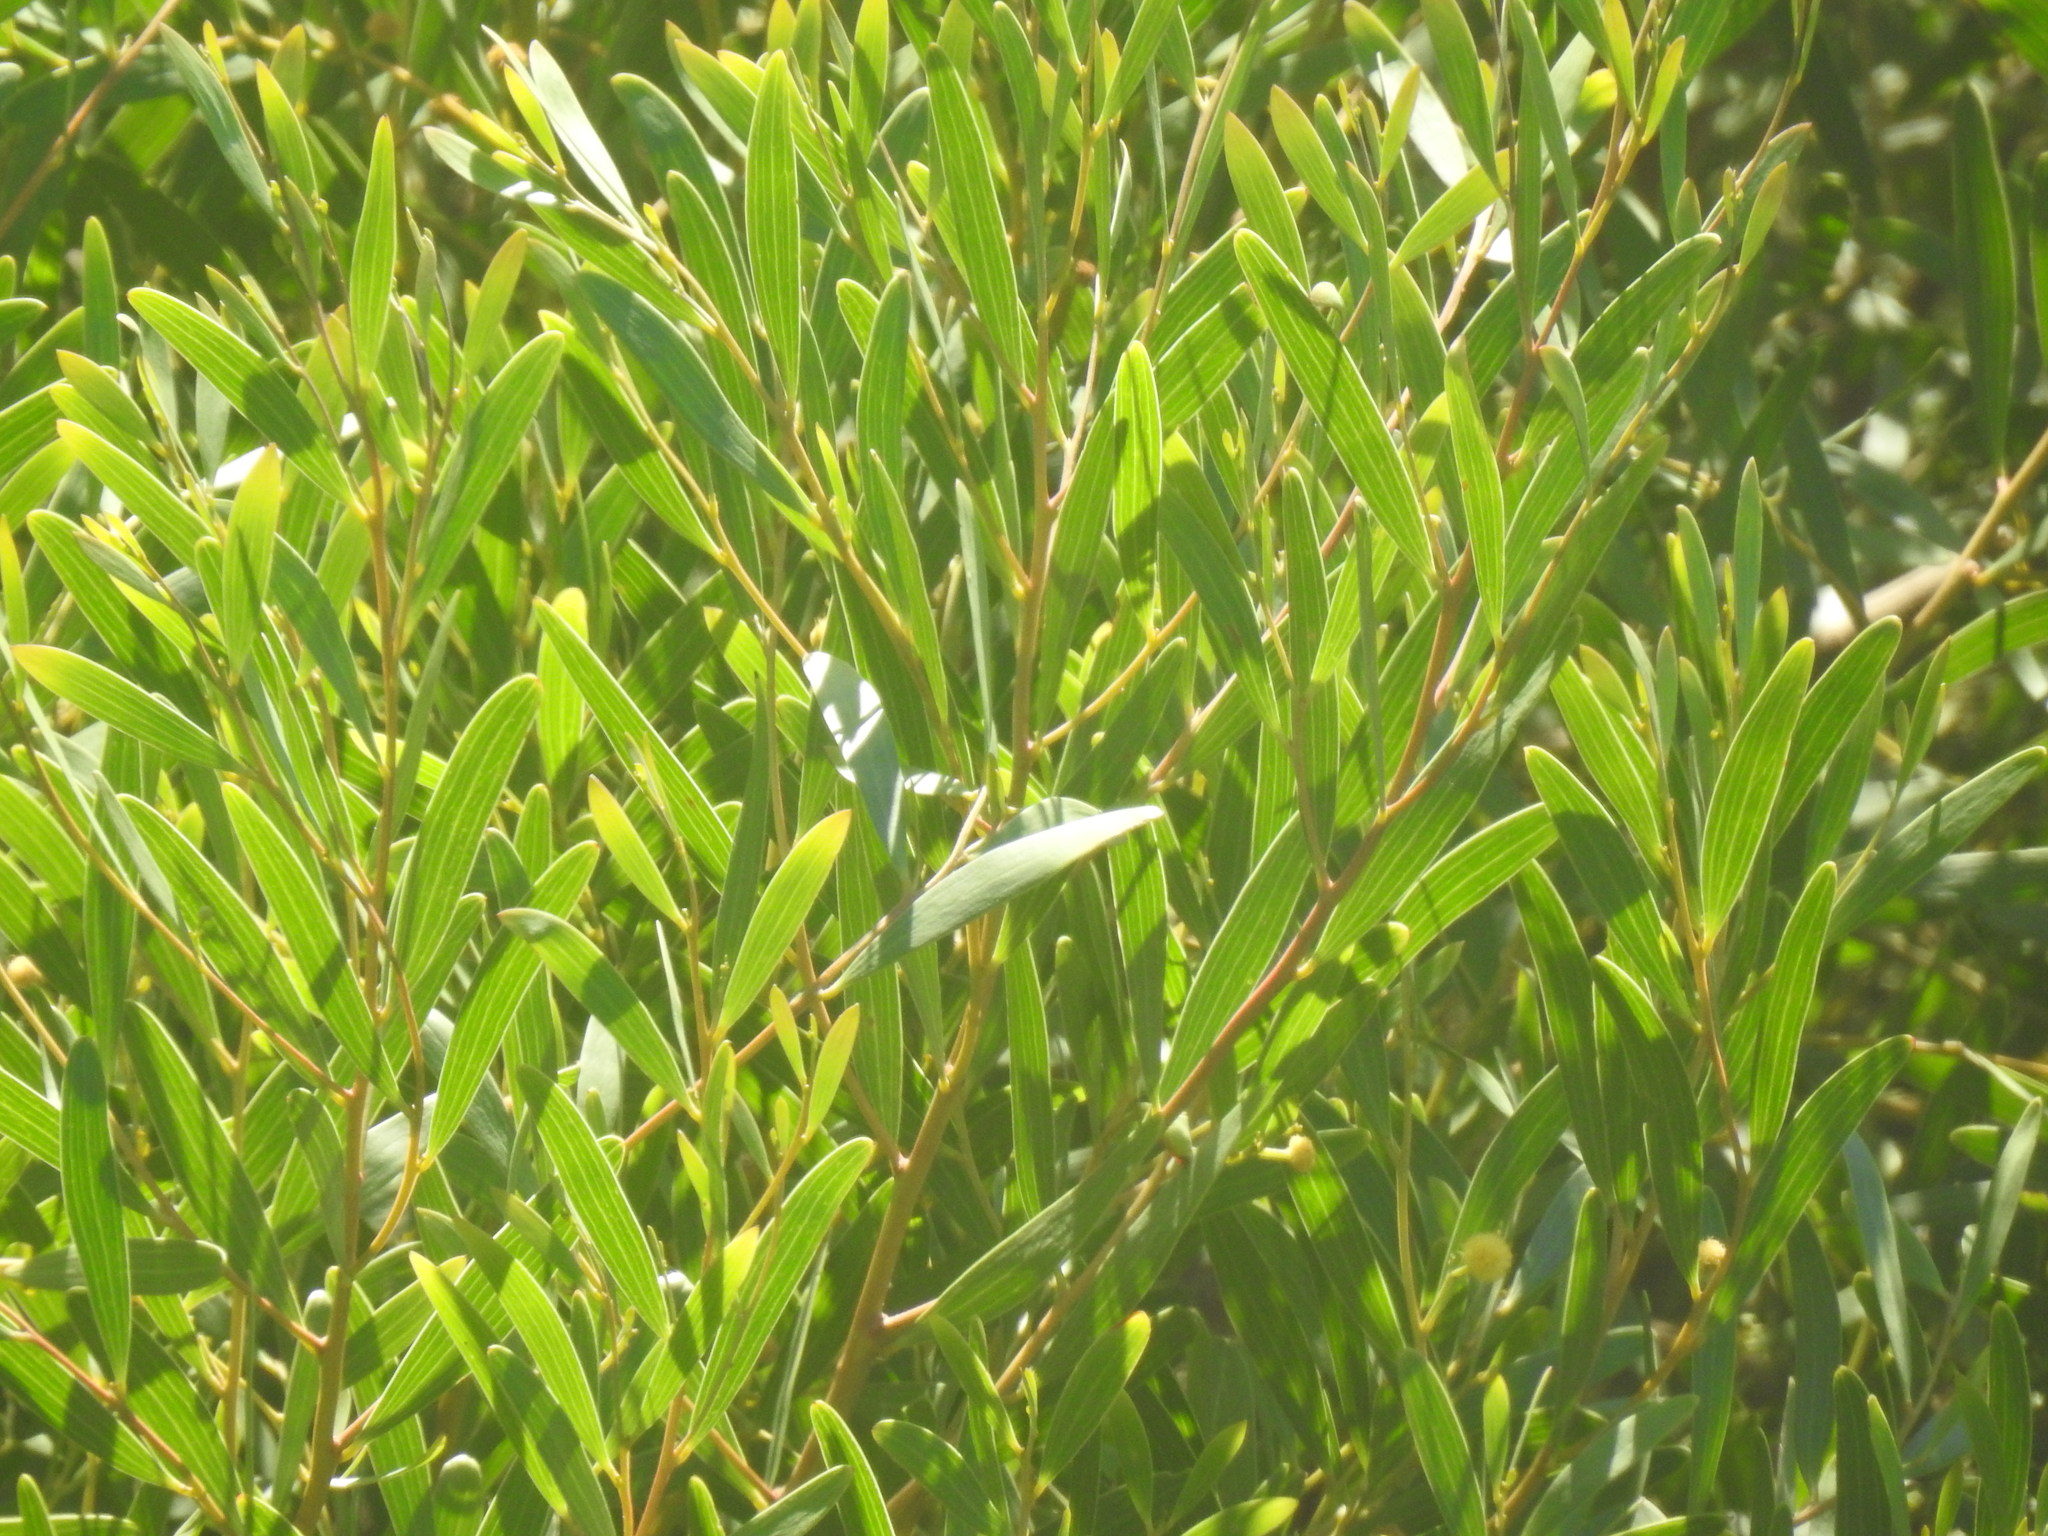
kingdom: Plantae
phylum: Tracheophyta
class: Magnoliopsida
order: Fabales
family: Fabaceae
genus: Acacia
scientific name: Acacia cyclops
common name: Coastal wattle
